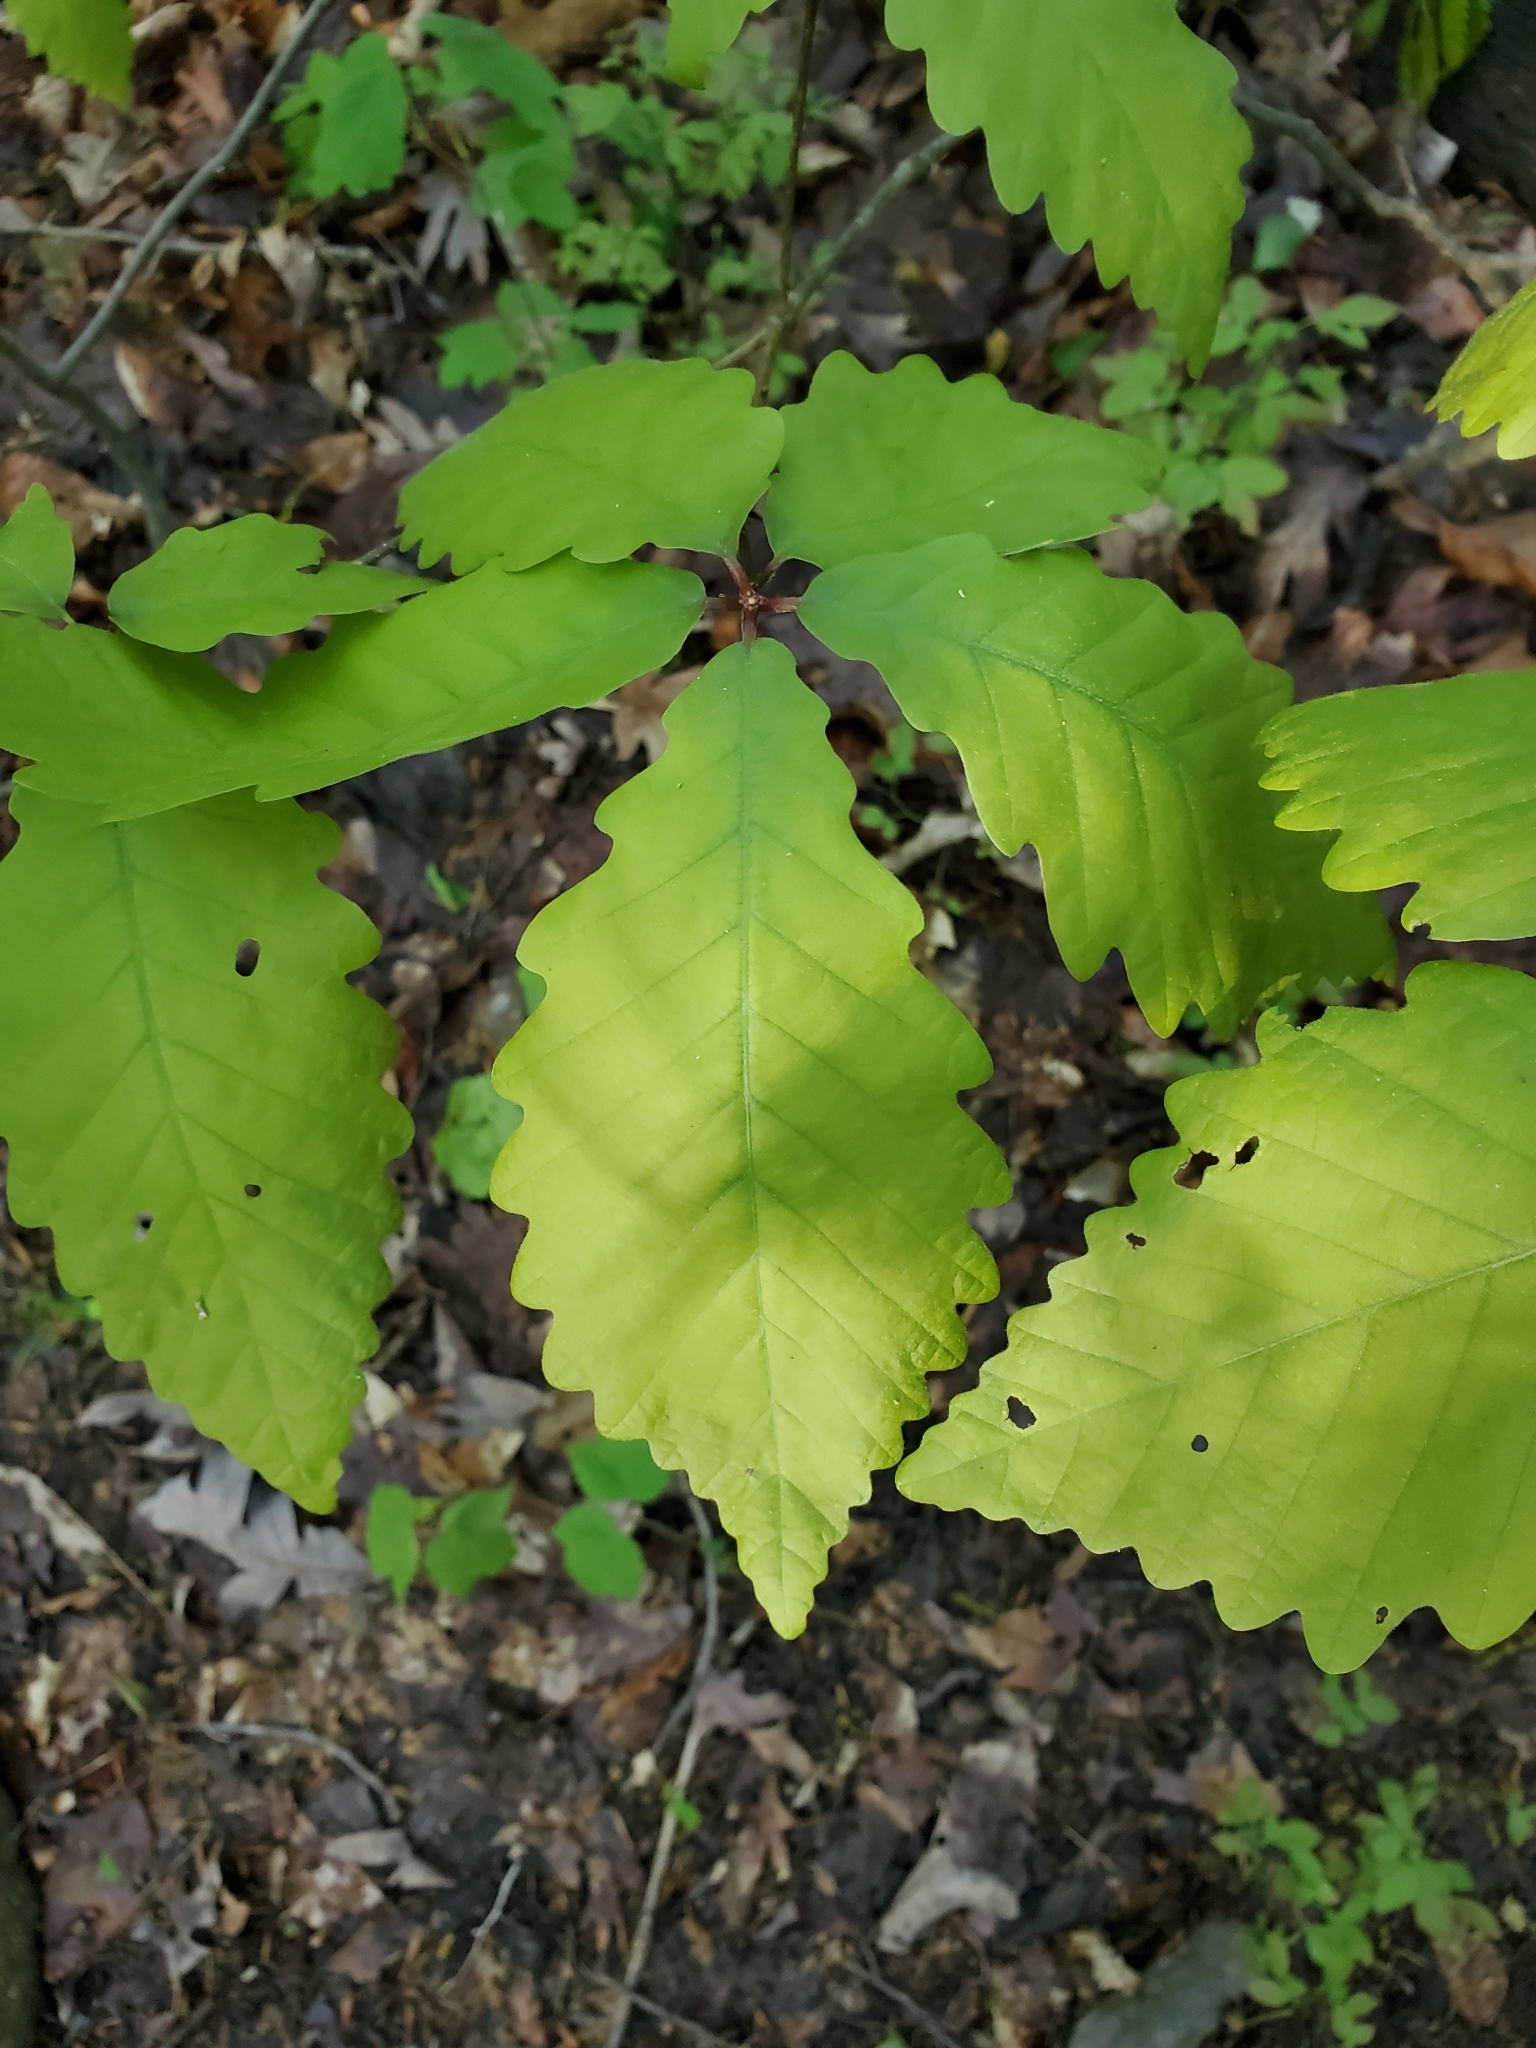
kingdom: Plantae
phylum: Tracheophyta
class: Magnoliopsida
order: Fagales
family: Fagaceae
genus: Quercus
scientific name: Quercus montana
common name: Chestnut oak
